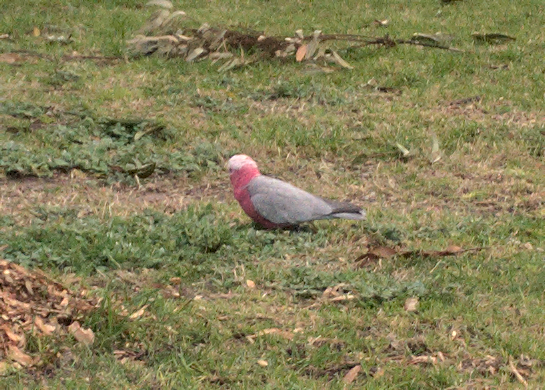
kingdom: Animalia
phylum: Chordata
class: Aves
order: Psittaciformes
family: Psittacidae
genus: Eolophus
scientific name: Eolophus roseicapilla
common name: Galah
